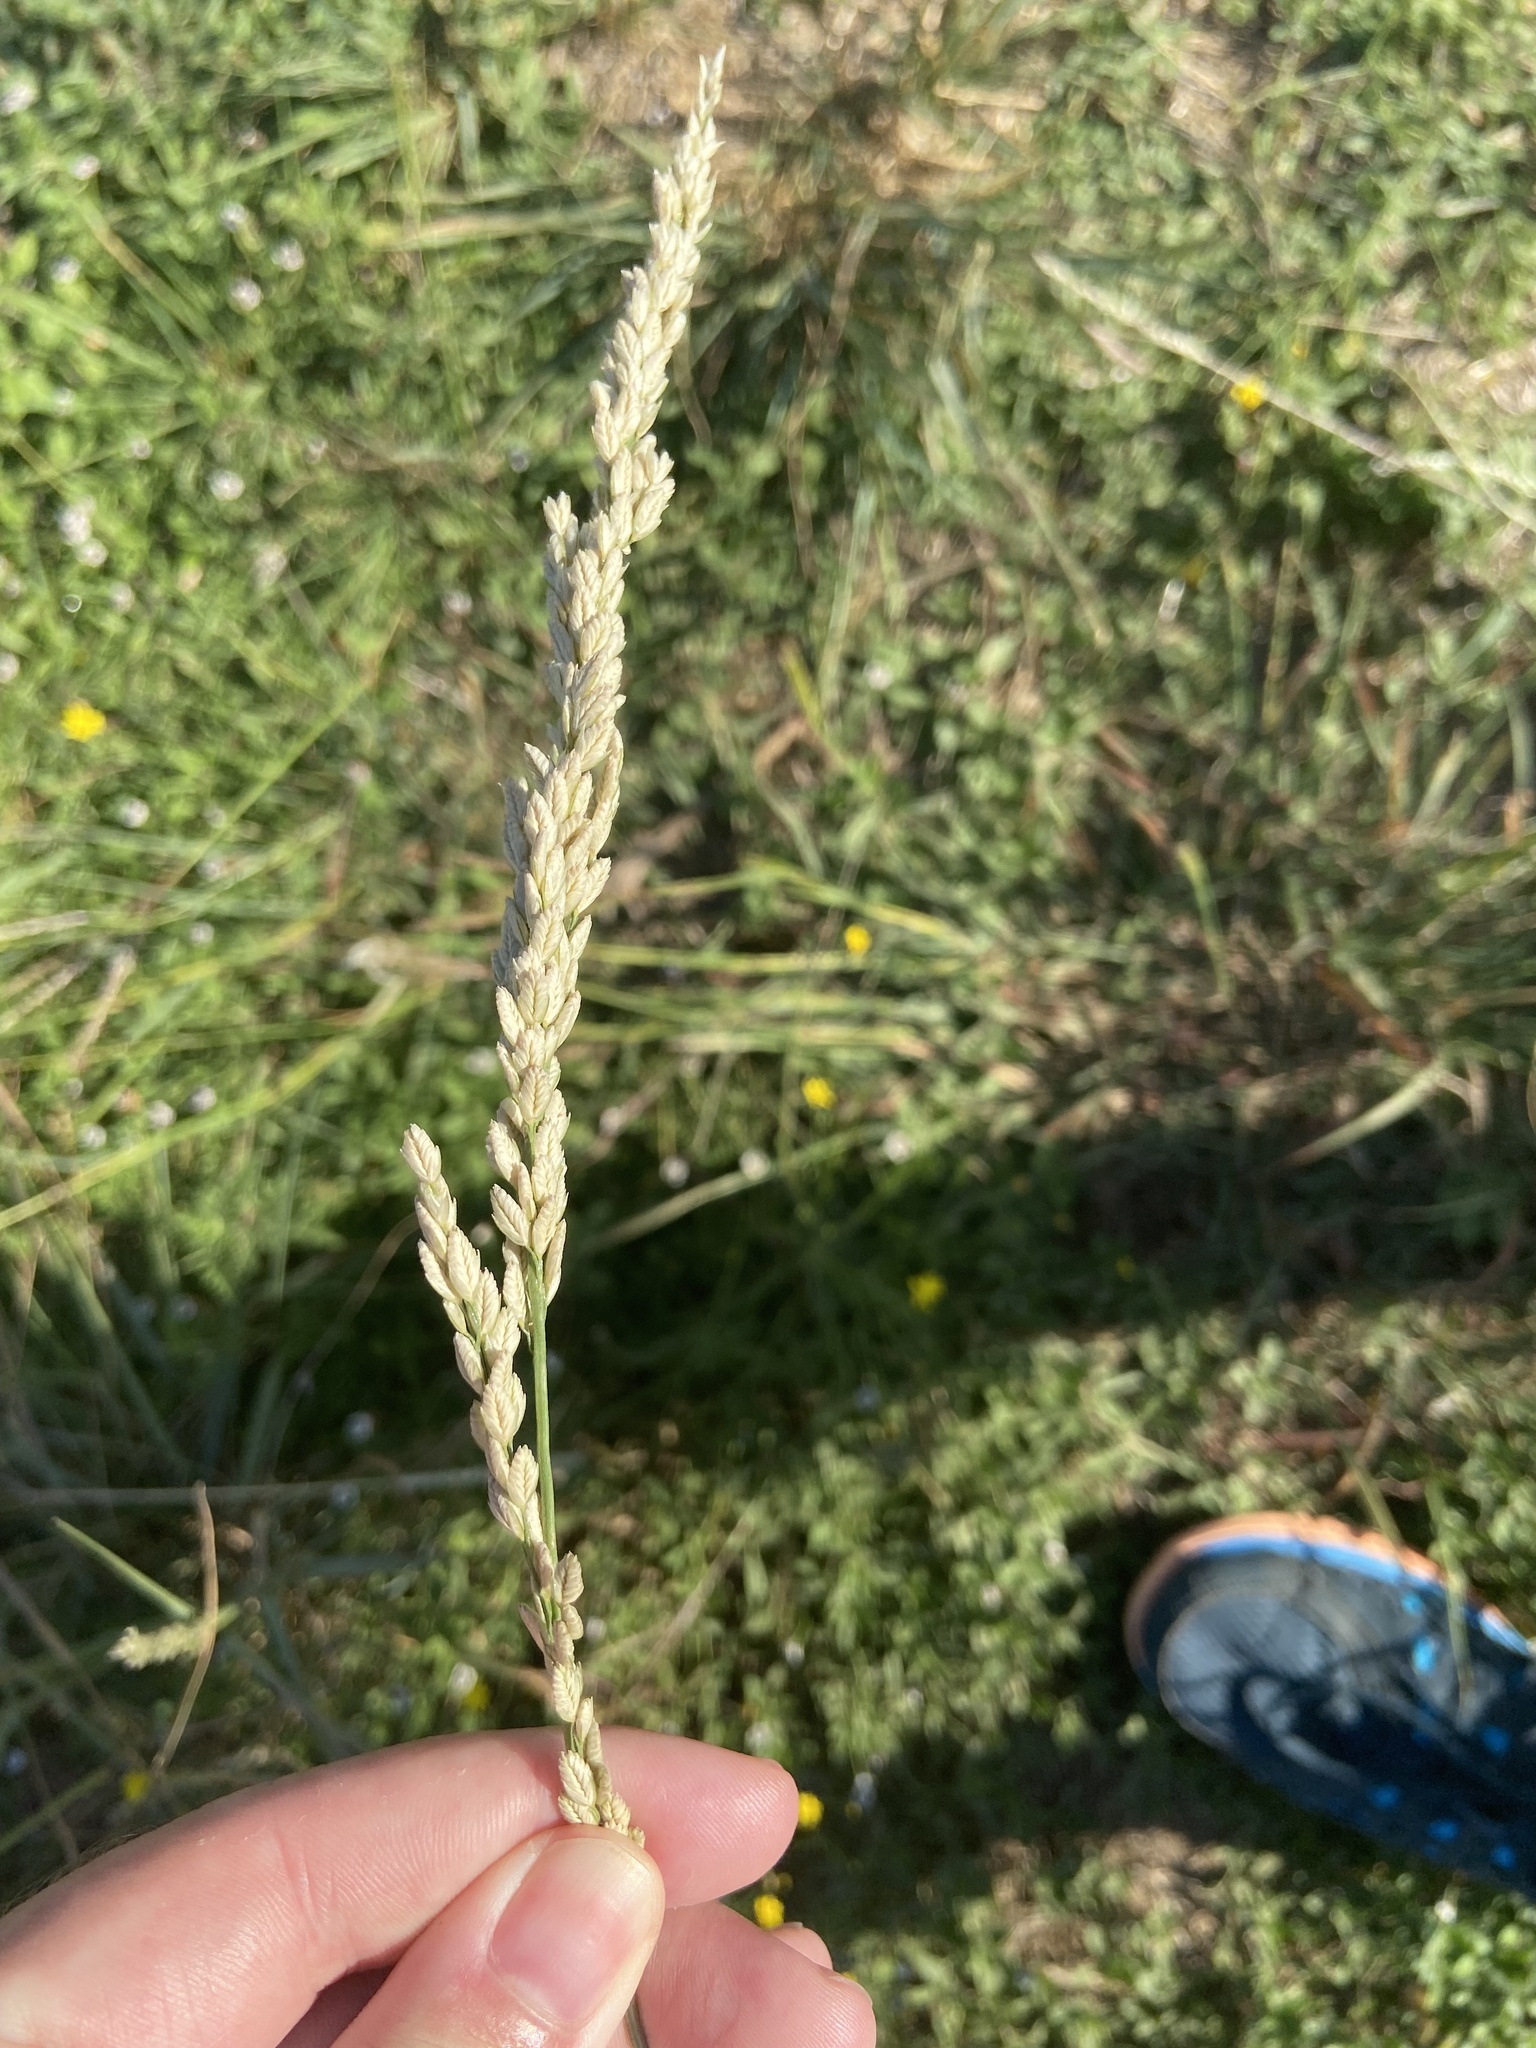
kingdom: Plantae
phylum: Tracheophyta
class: Liliopsida
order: Poales
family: Poaceae
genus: Tridens
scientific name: Tridens albescens
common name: White tridens
